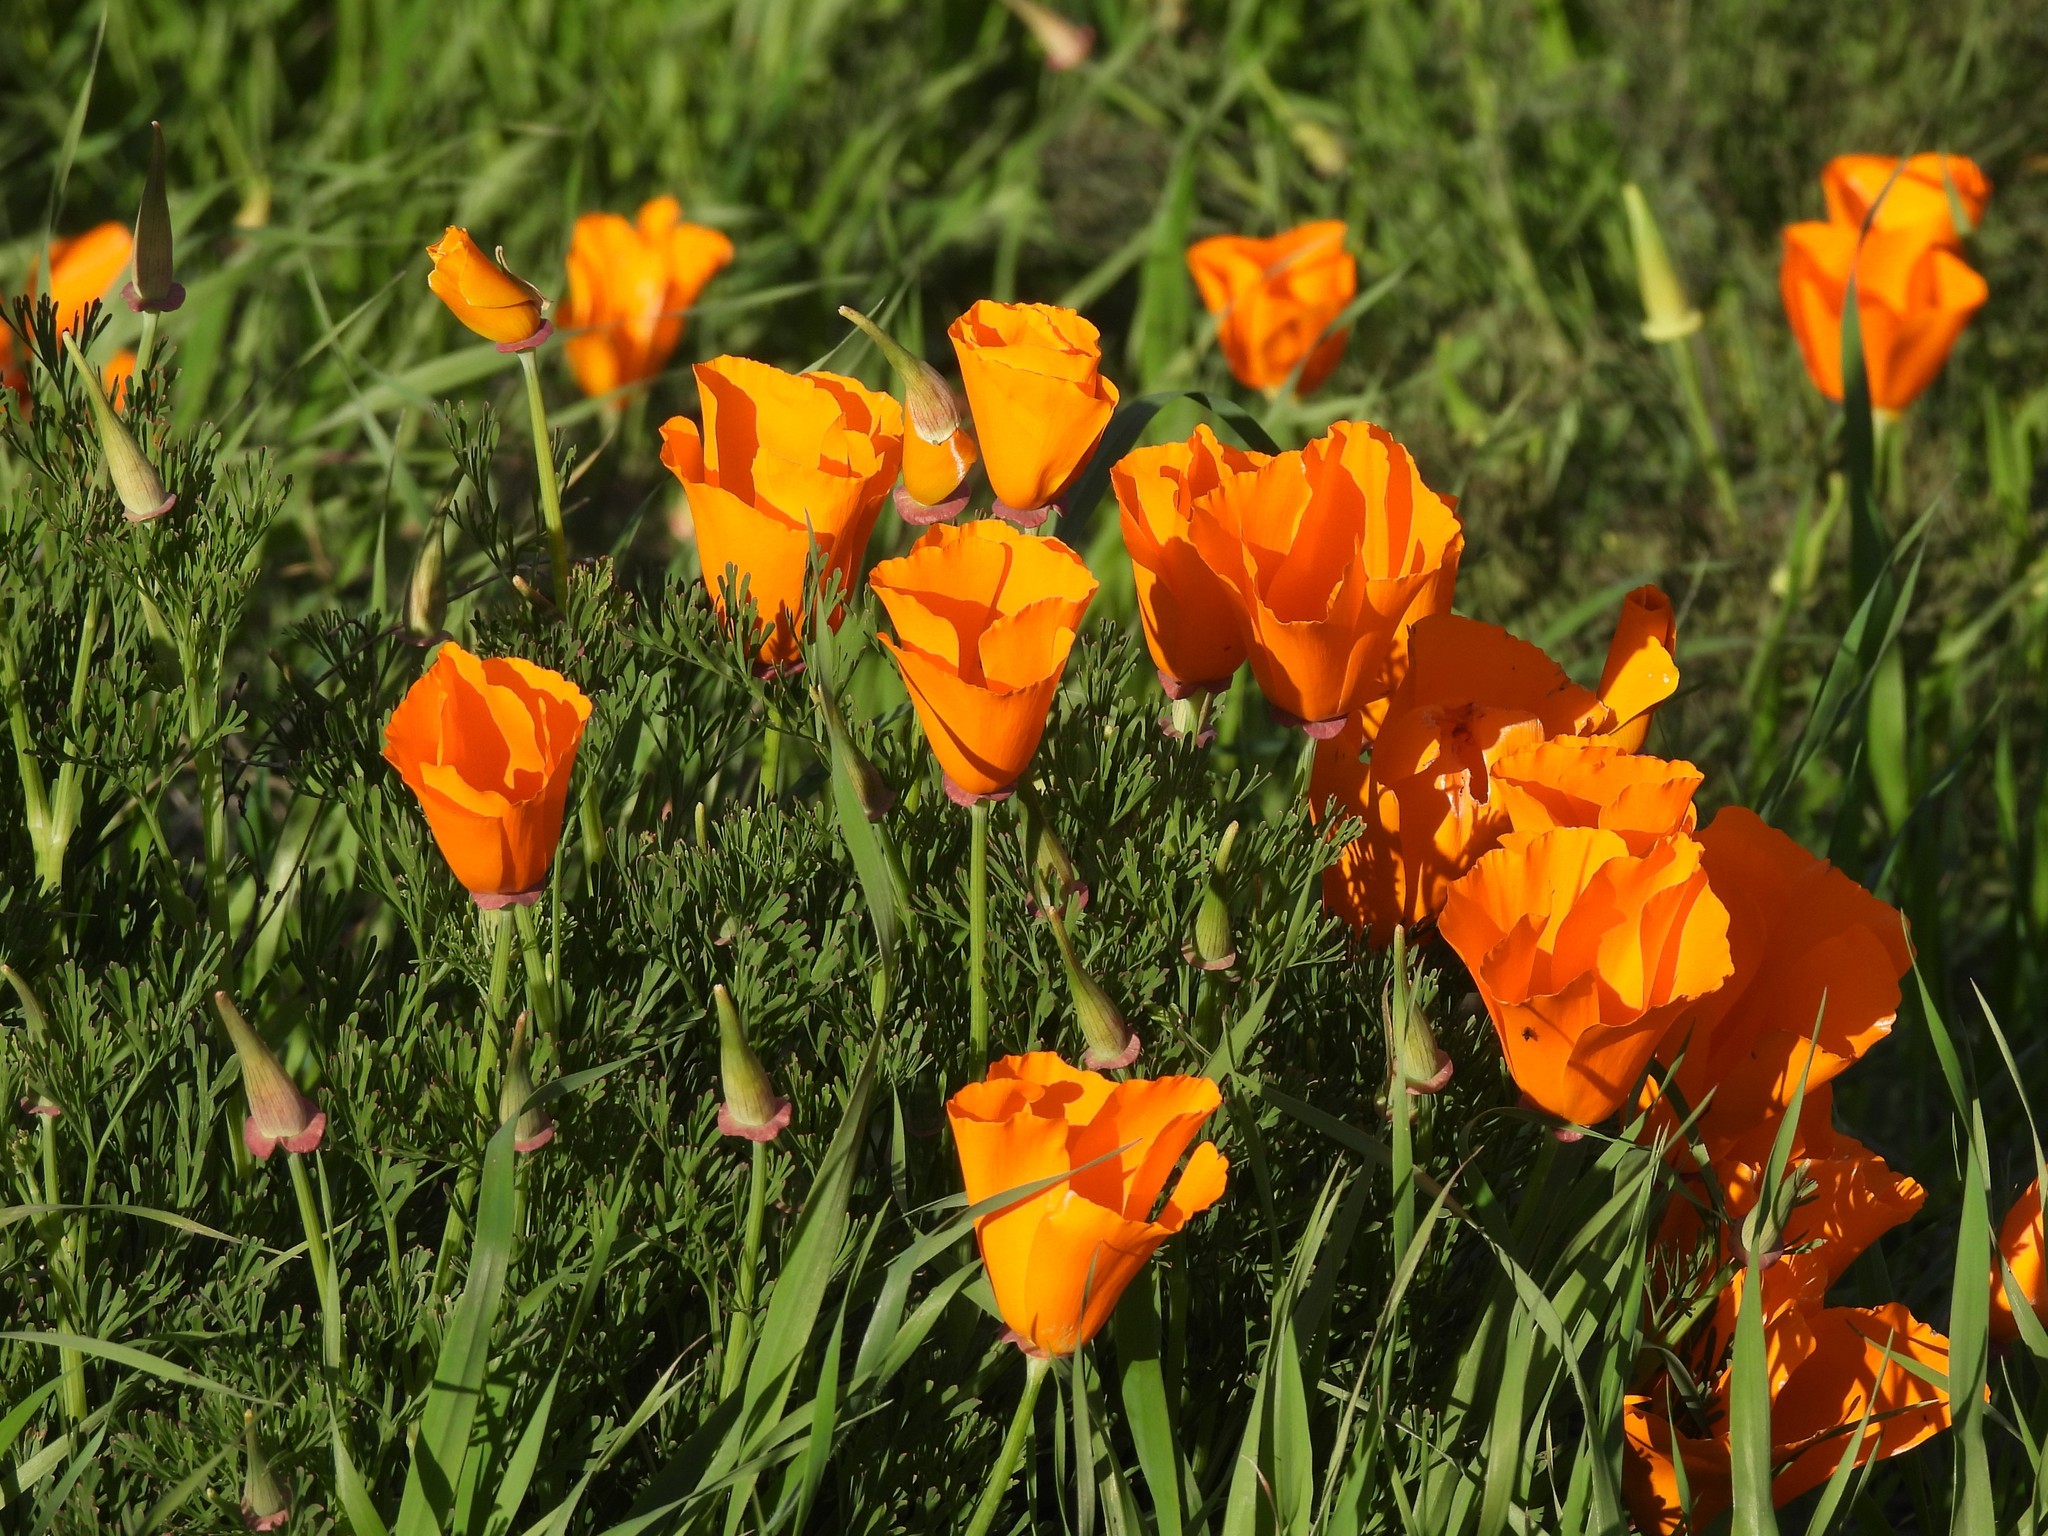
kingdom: Plantae
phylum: Tracheophyta
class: Magnoliopsida
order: Ranunculales
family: Papaveraceae
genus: Eschscholzia
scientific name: Eschscholzia californica
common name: California poppy
